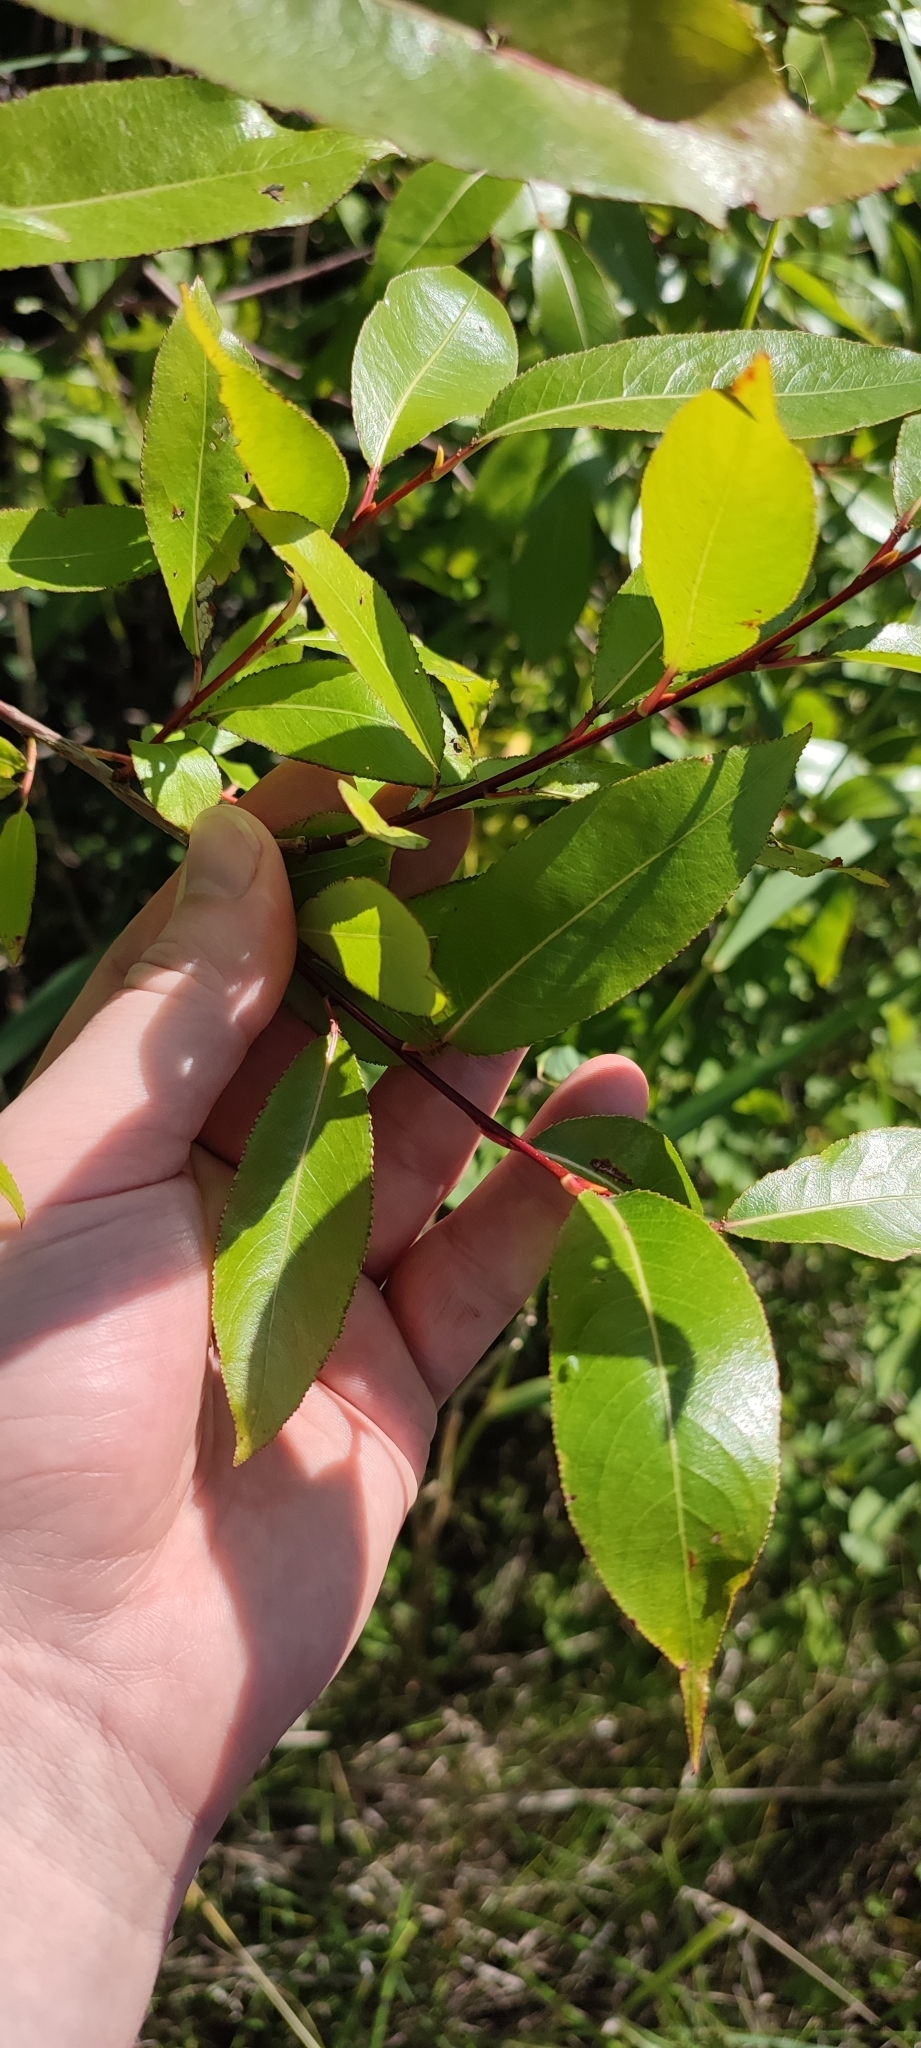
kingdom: Plantae
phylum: Tracheophyta
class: Magnoliopsida
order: Malpighiales
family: Salicaceae
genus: Salix
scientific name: Salix pentandra
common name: Bay willow
